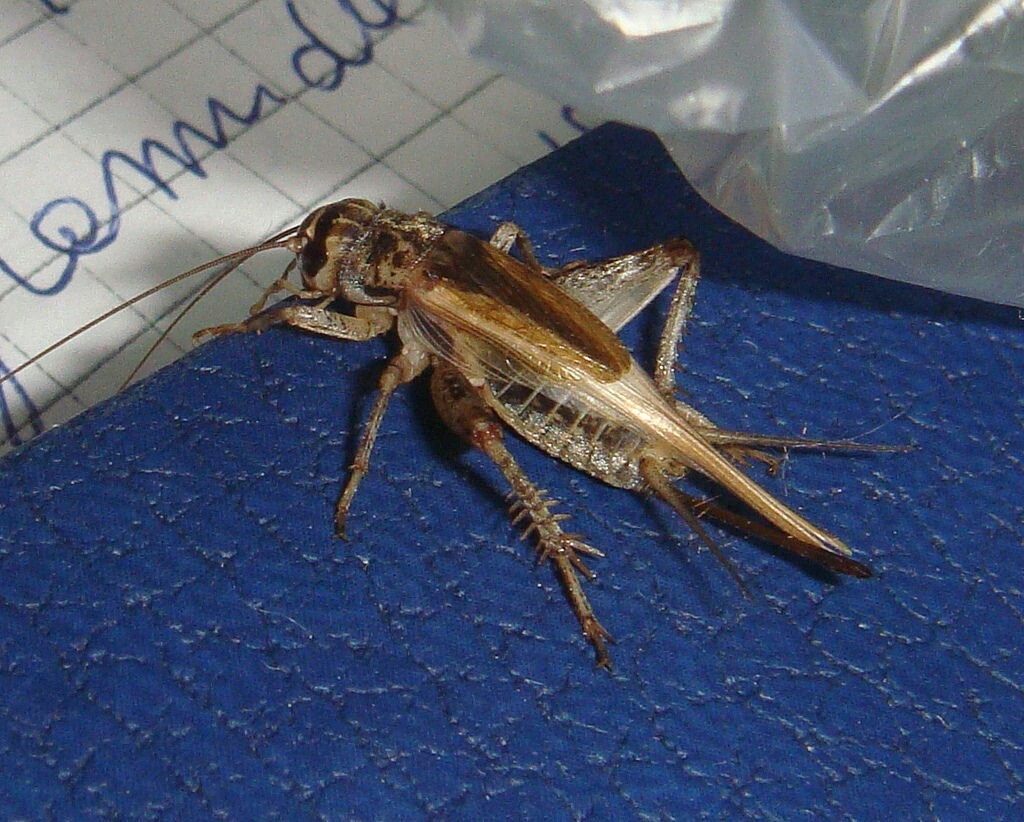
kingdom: Animalia
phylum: Arthropoda
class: Insecta
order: Orthoptera
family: Gryllidae
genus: Acheta
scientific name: Acheta domesticus
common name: House cricket
